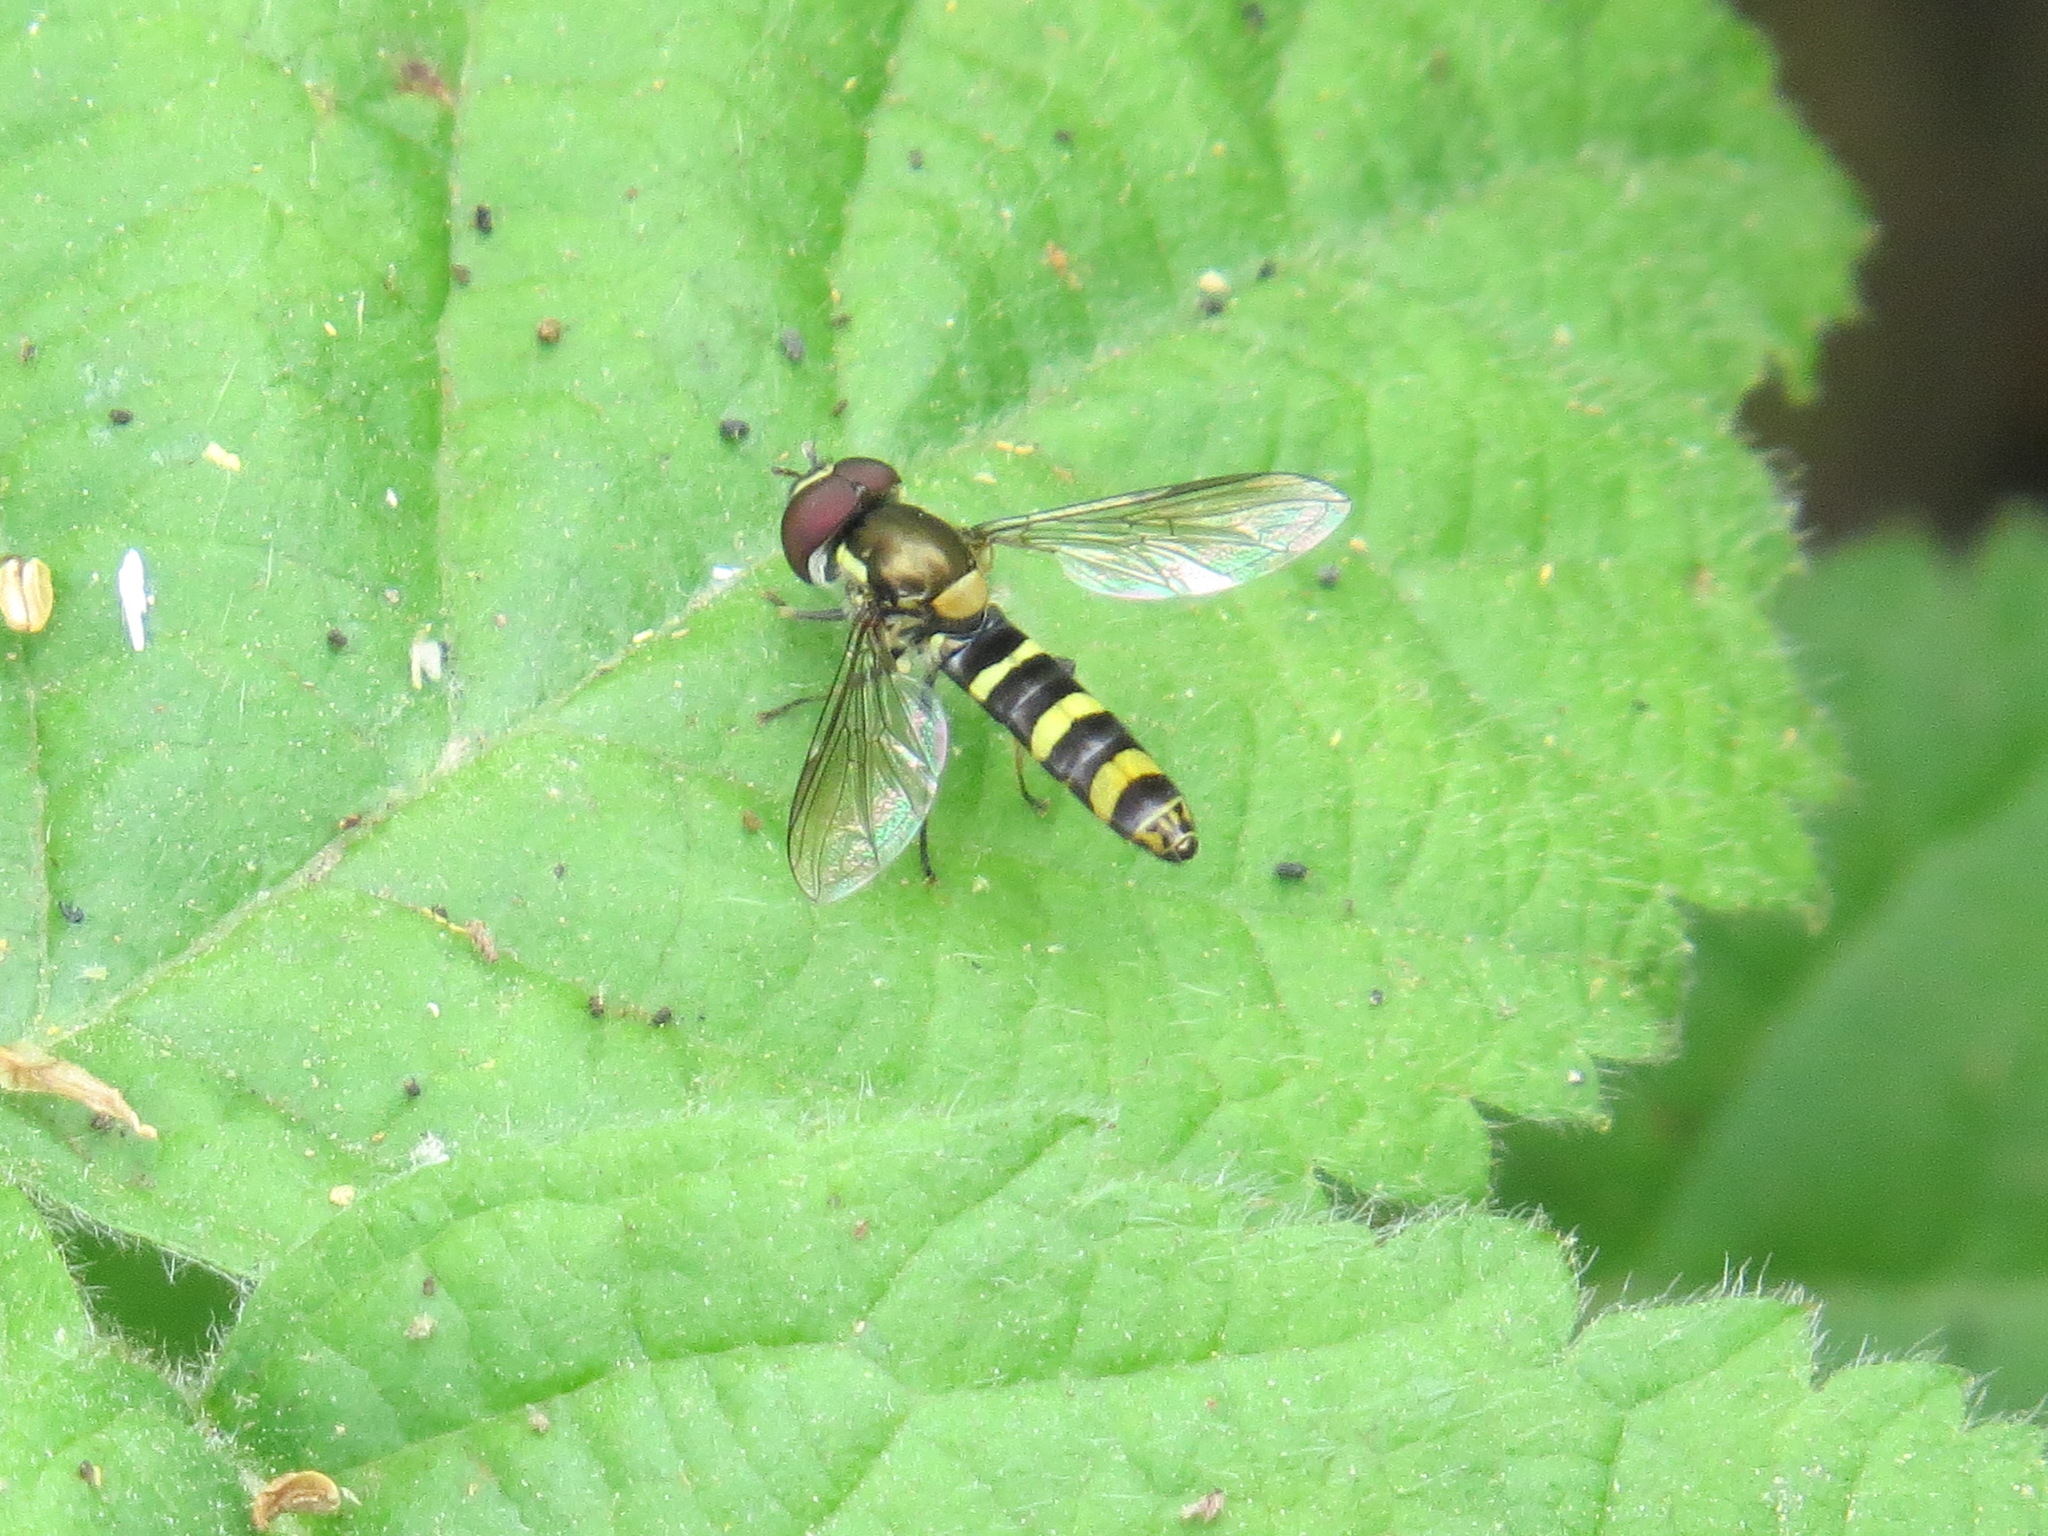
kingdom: Animalia
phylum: Arthropoda
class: Insecta
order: Diptera
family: Syrphidae
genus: Fazia
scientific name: Fazia micrura
